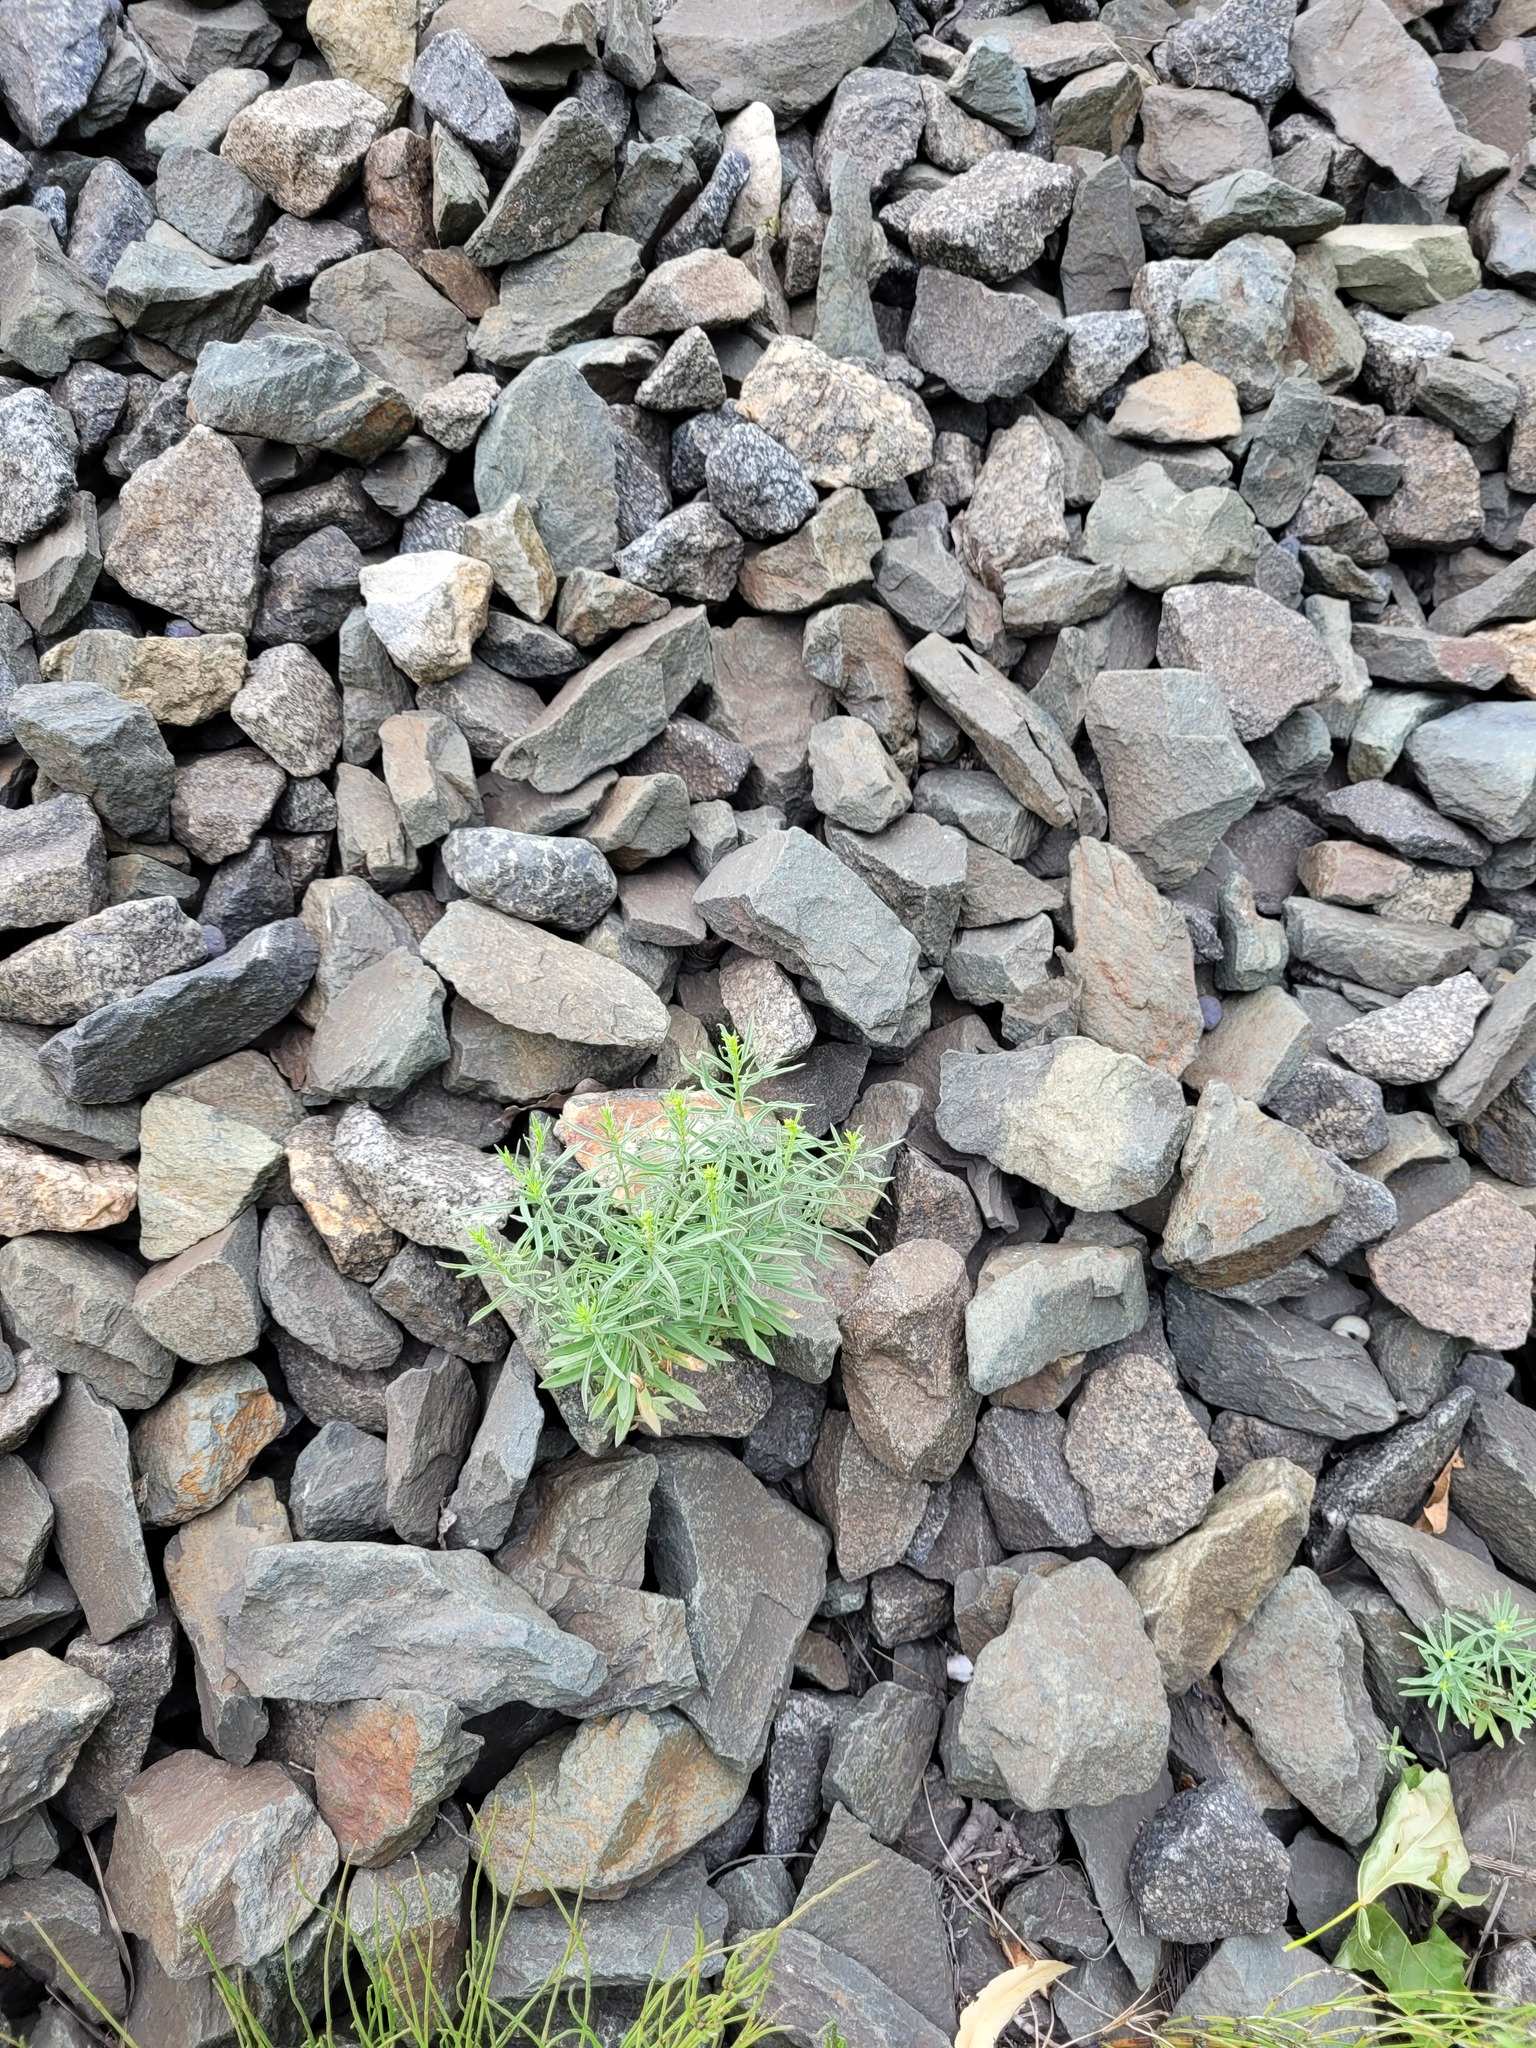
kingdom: Plantae
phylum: Tracheophyta
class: Magnoliopsida
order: Lamiales
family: Plantaginaceae
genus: Linaria
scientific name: Linaria vulgaris
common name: Butter and eggs
